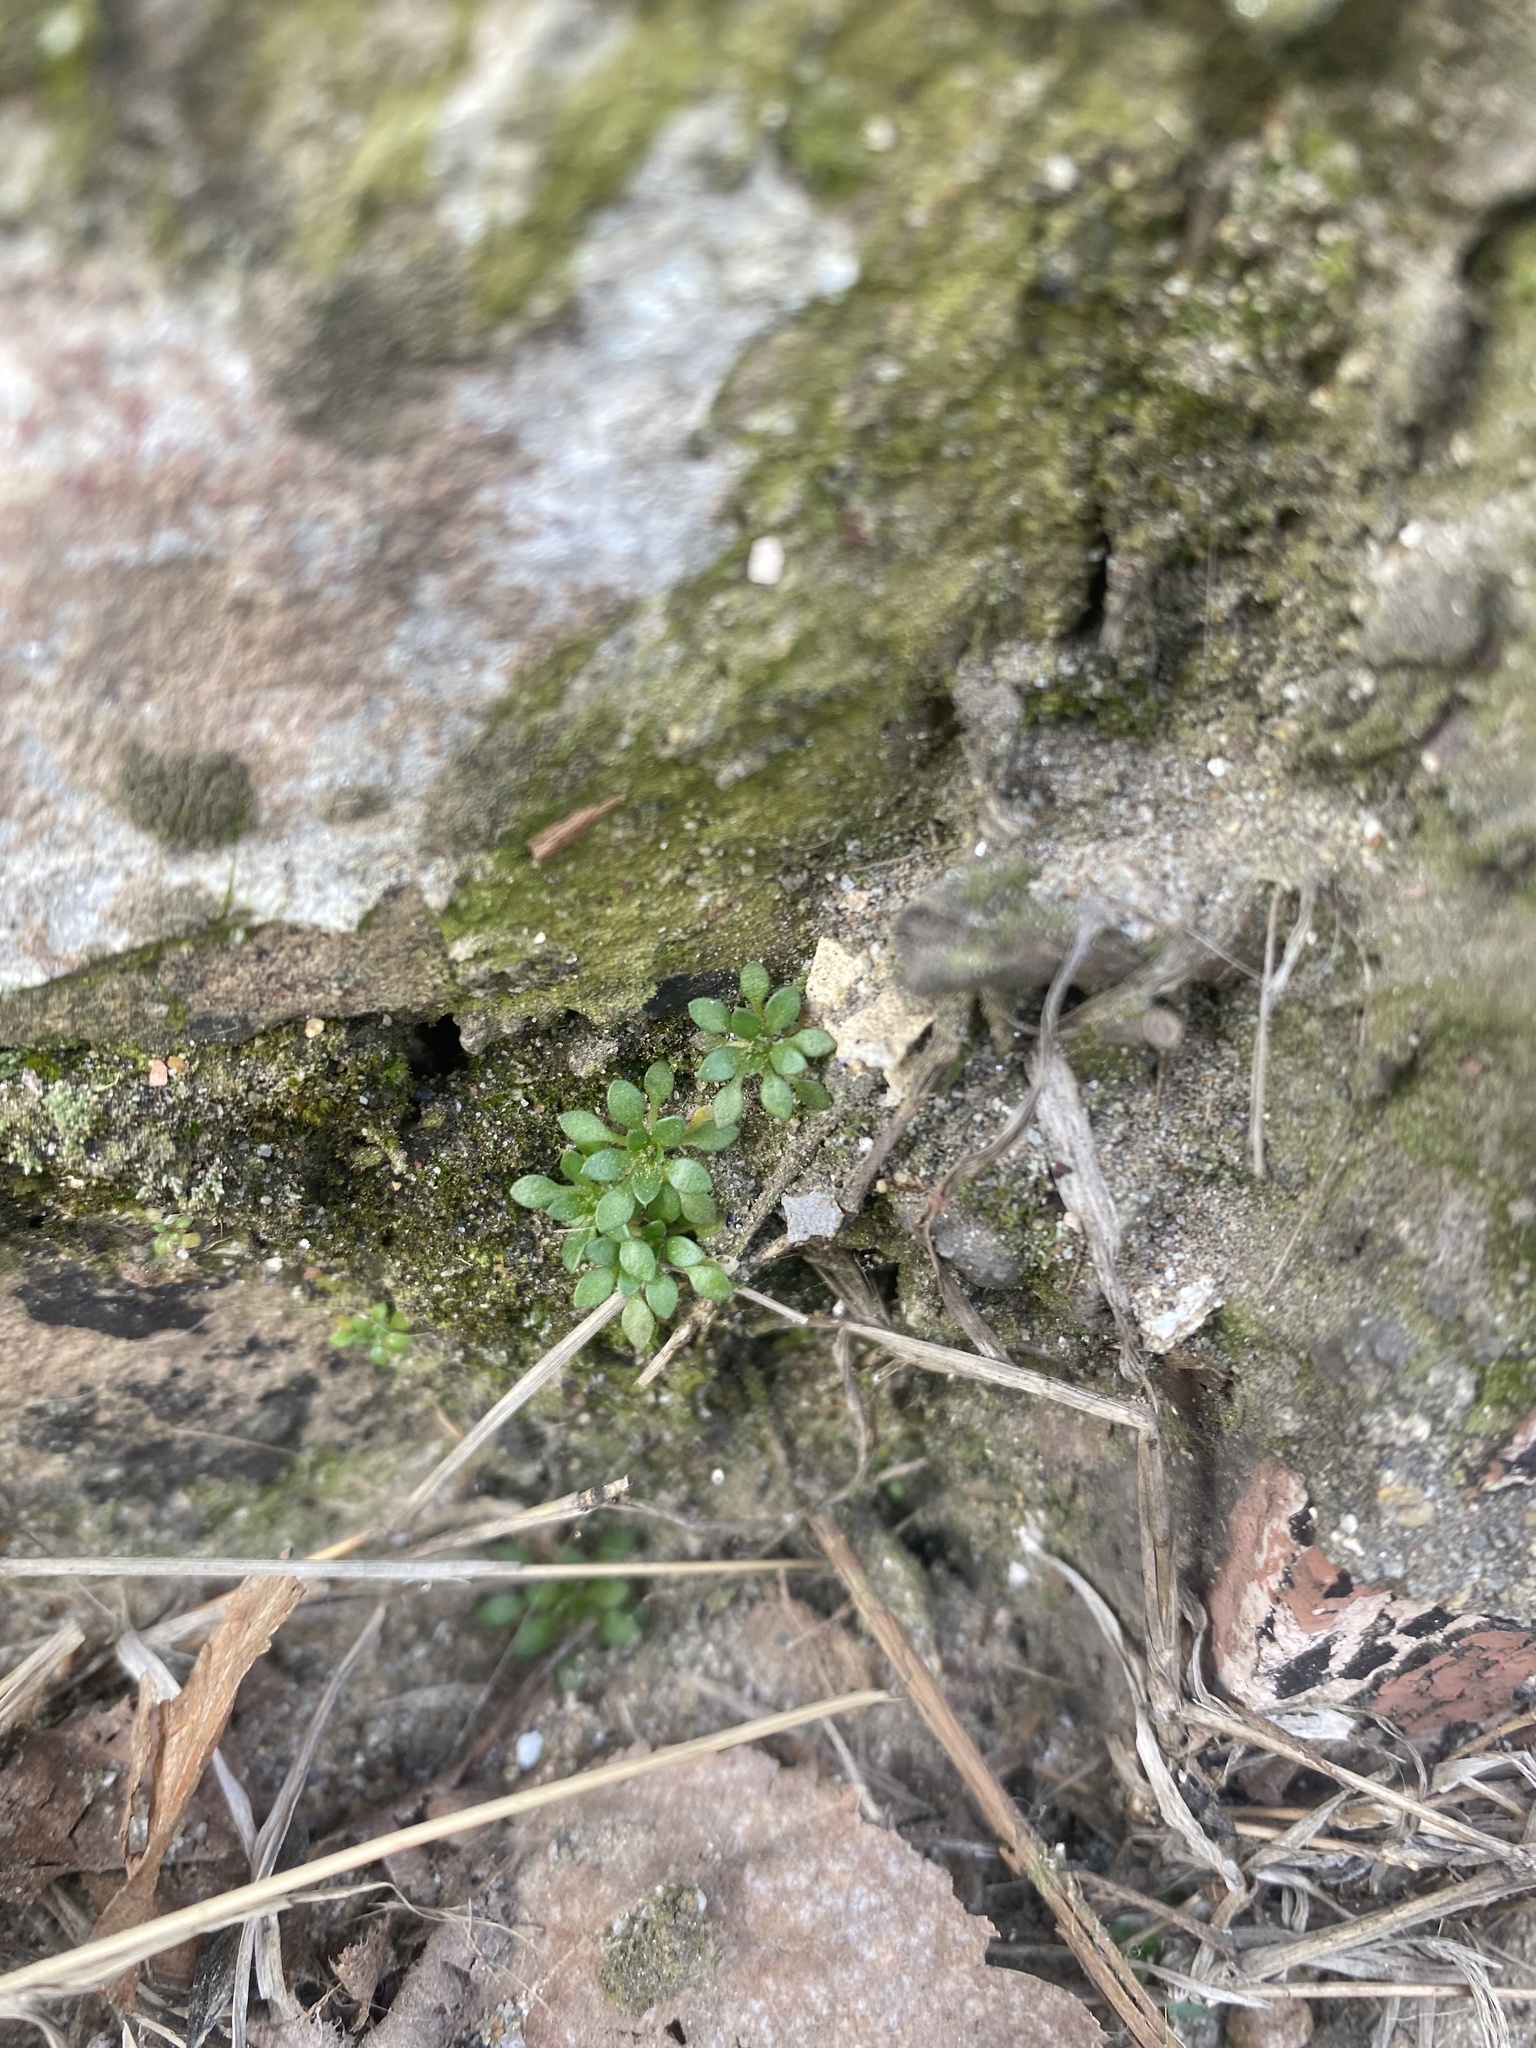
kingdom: Plantae
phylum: Tracheophyta
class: Magnoliopsida
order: Brassicales
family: Brassicaceae
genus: Draba
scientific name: Draba verna
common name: Spring draba
